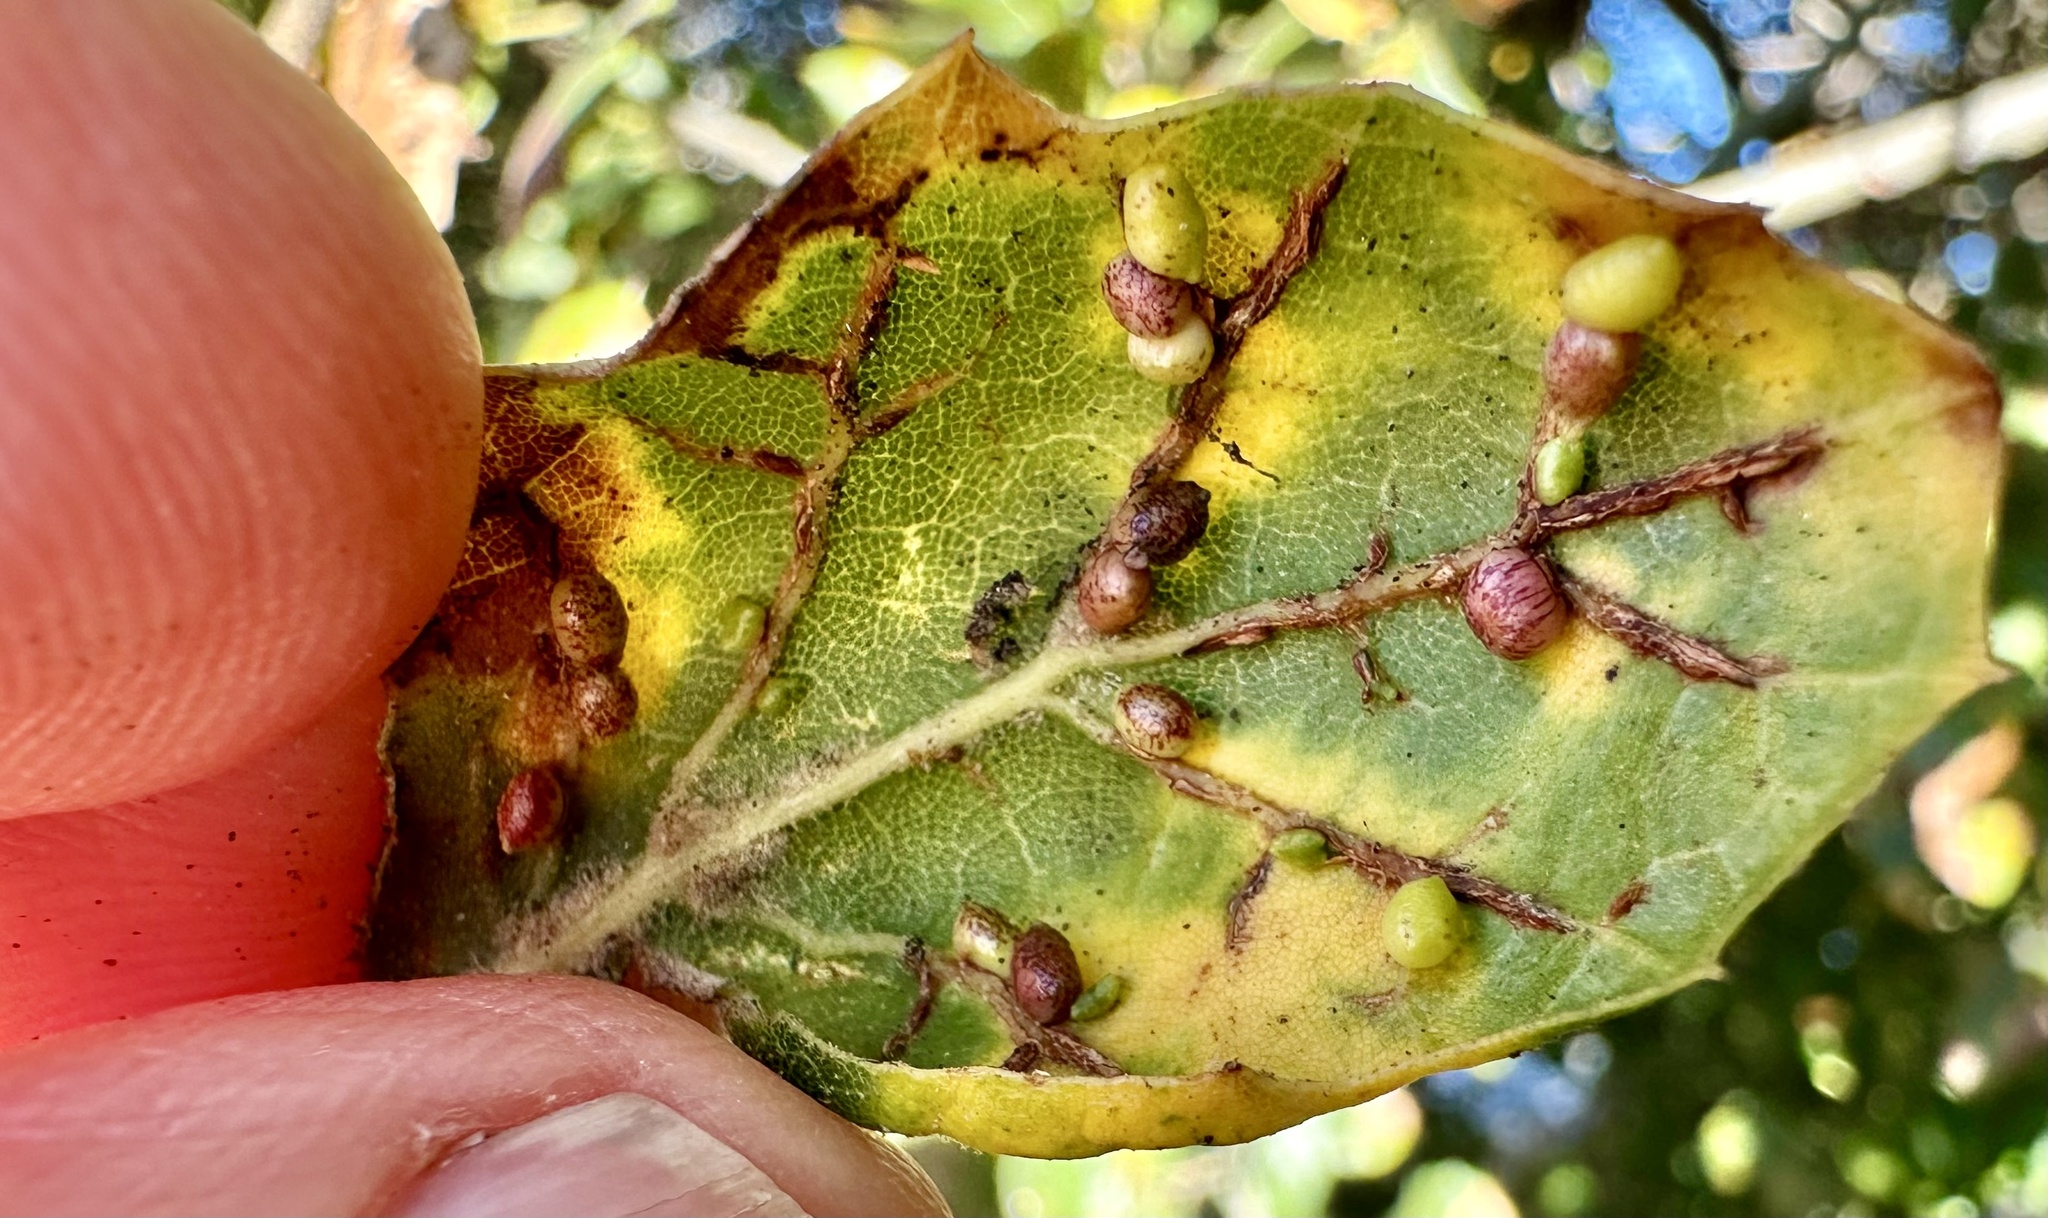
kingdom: Animalia
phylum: Arthropoda
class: Insecta
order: Hymenoptera
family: Cynipidae
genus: Dryocosmus
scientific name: Dryocosmus
